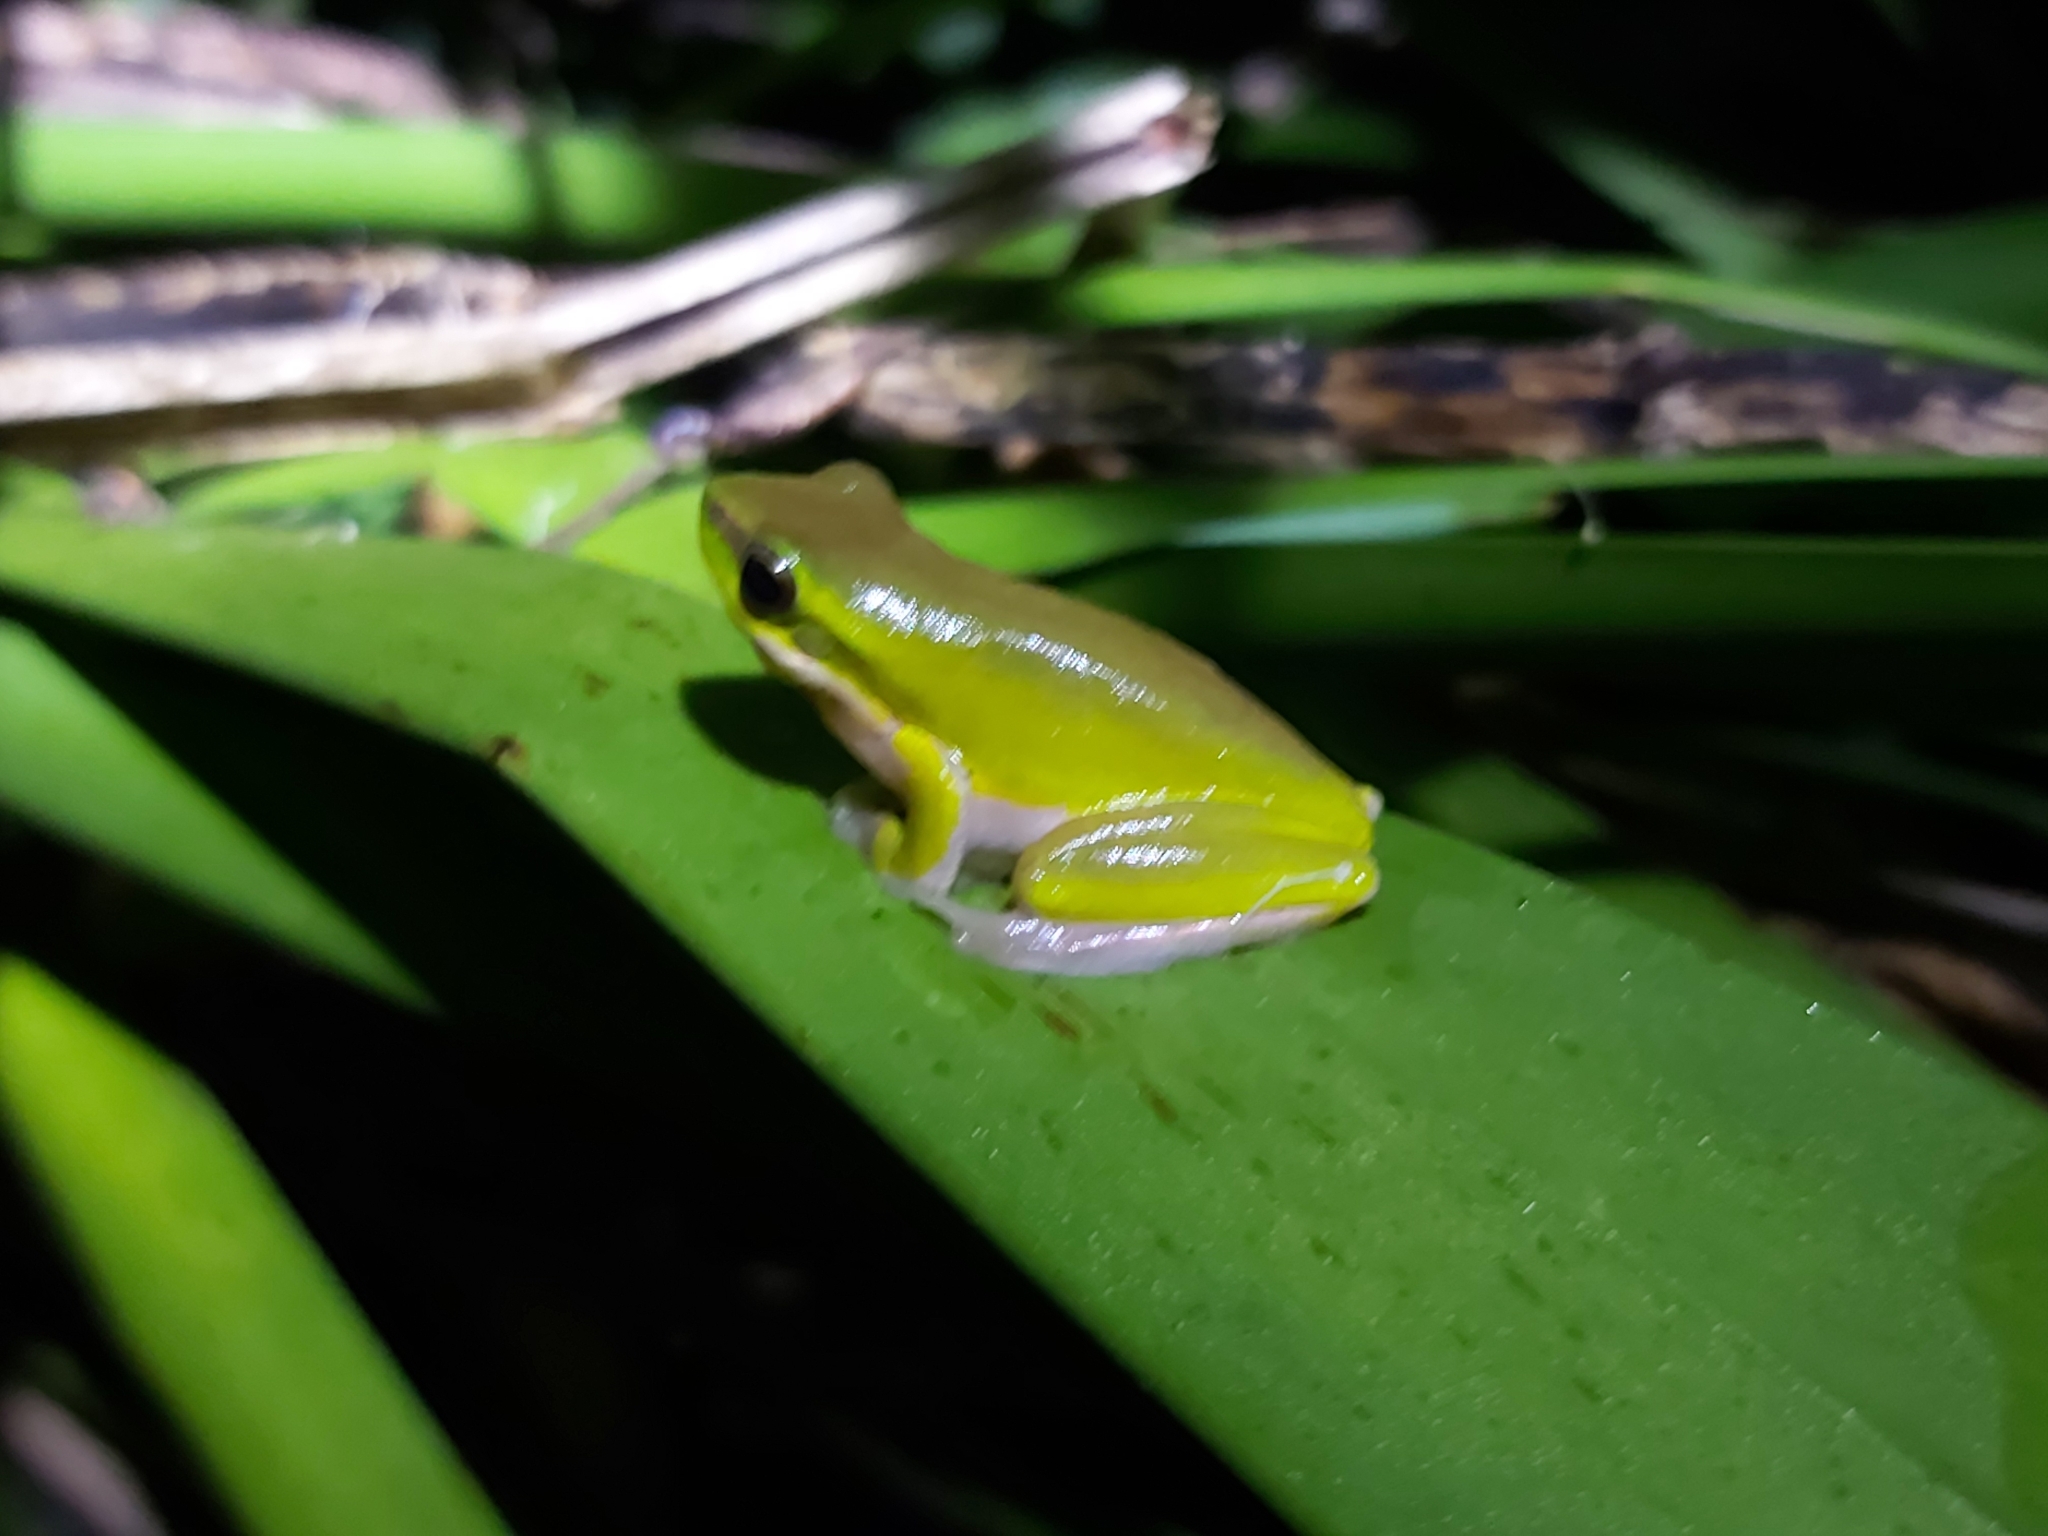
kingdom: Animalia
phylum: Chordata
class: Amphibia
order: Anura
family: Pelodryadidae
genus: Litoria
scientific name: Litoria fallax
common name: Eastern dwarf treefrog
